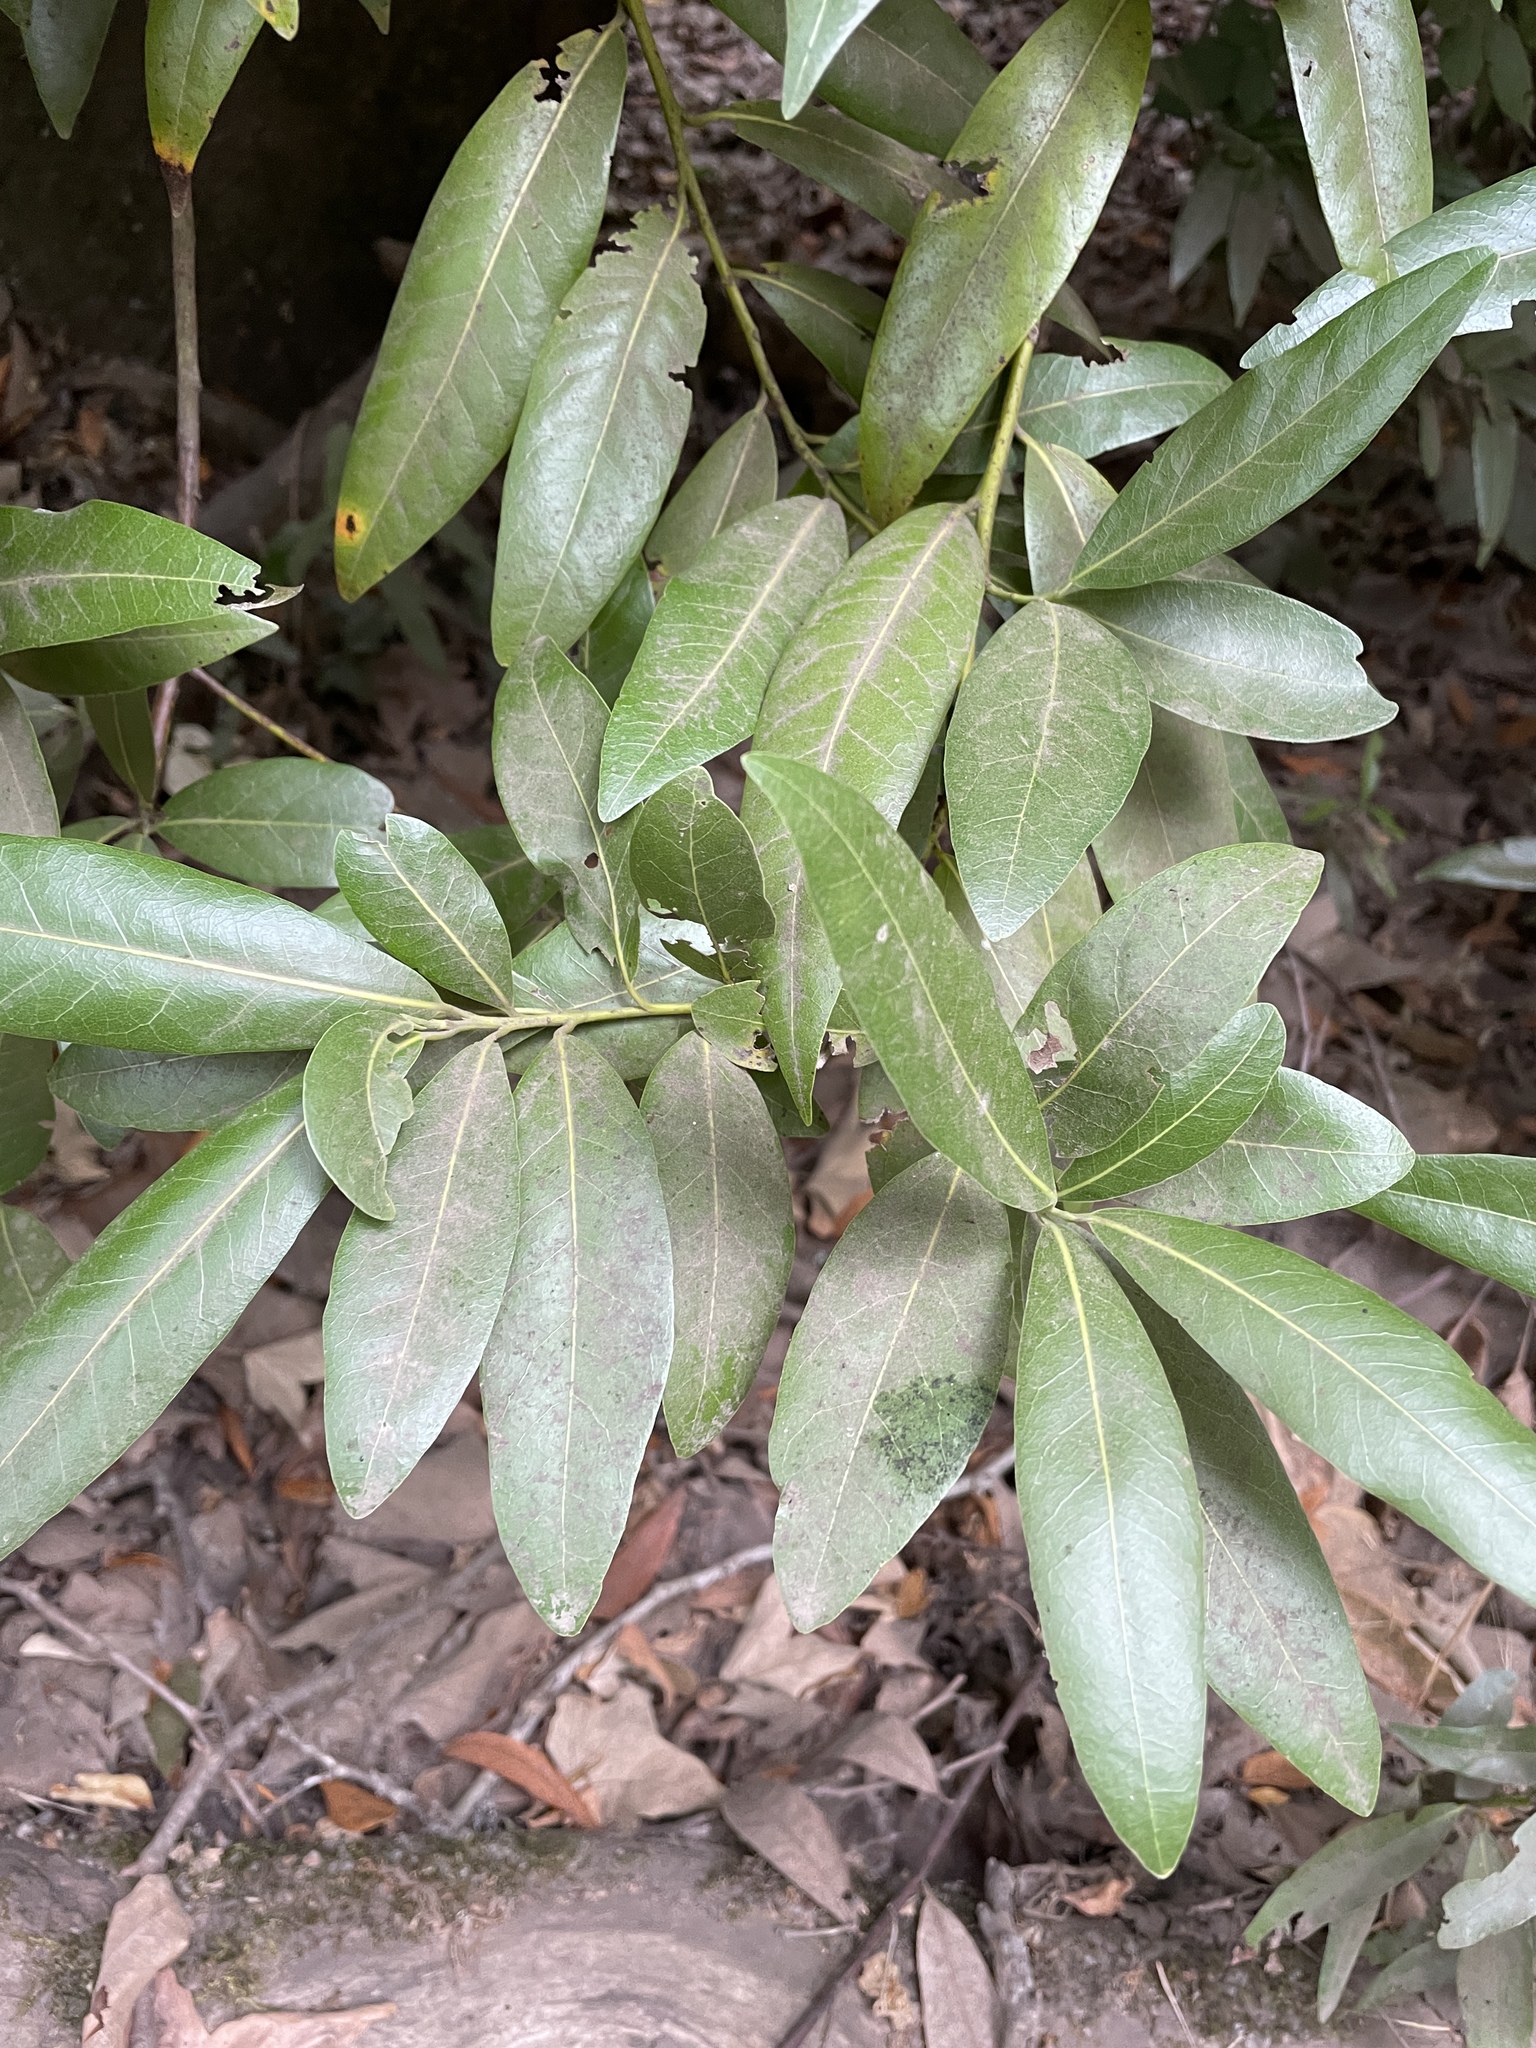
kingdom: Plantae
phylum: Tracheophyta
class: Magnoliopsida
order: Laurales
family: Lauraceae
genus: Umbellularia
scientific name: Umbellularia californica
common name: California bay
